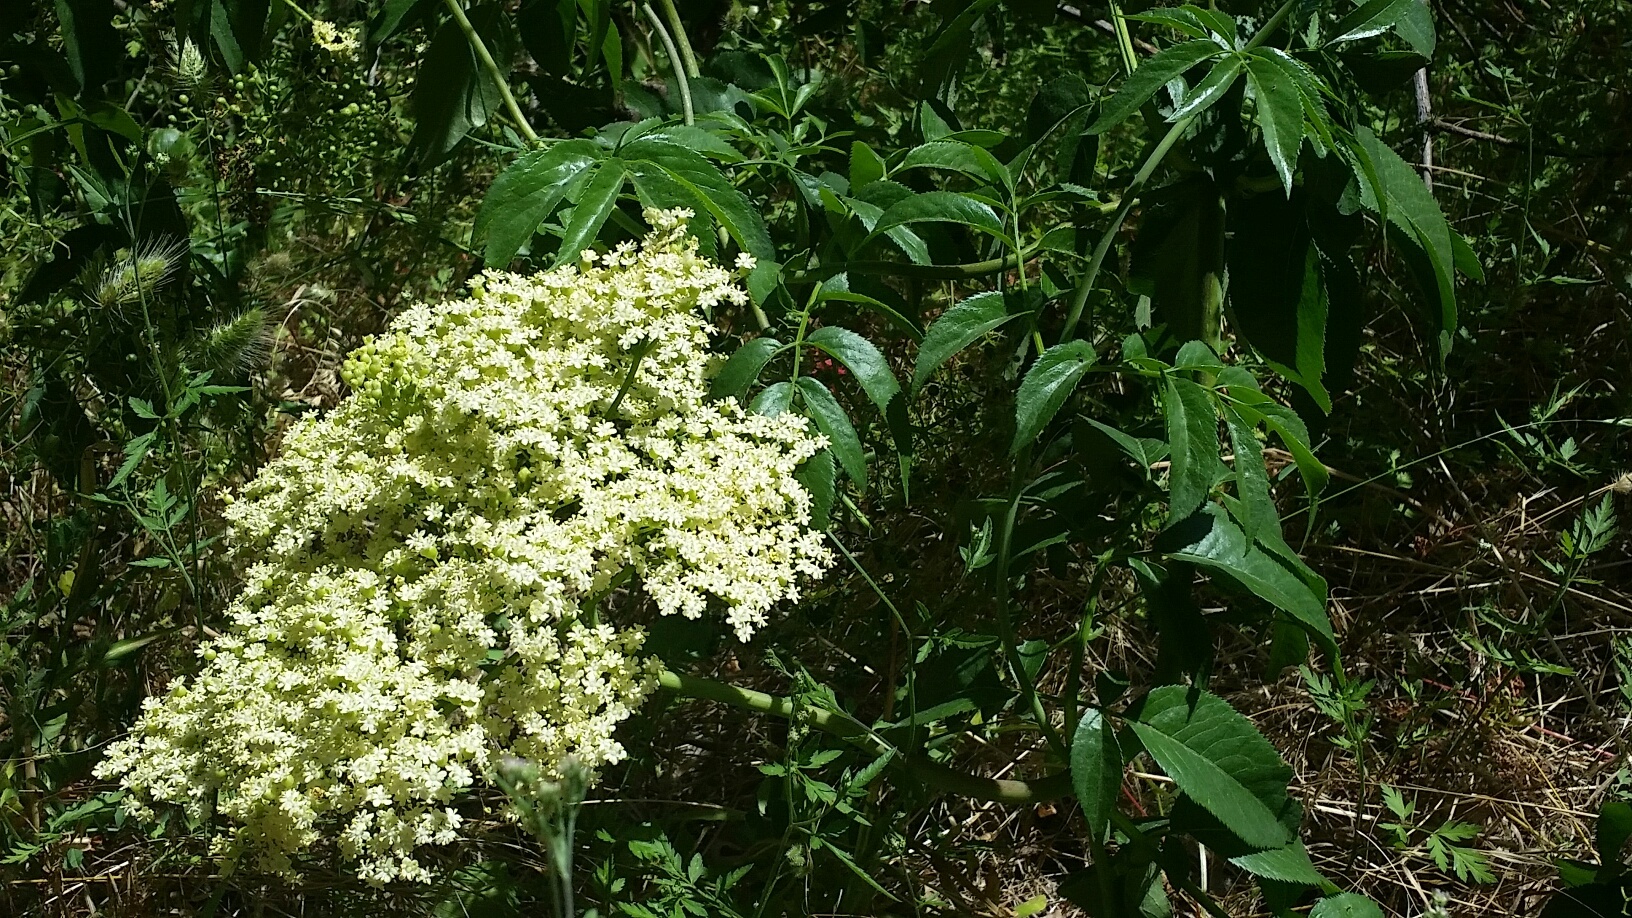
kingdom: Plantae
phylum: Tracheophyta
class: Magnoliopsida
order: Dipsacales
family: Viburnaceae
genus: Sambucus
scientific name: Sambucus cerulea
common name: Blue elder
